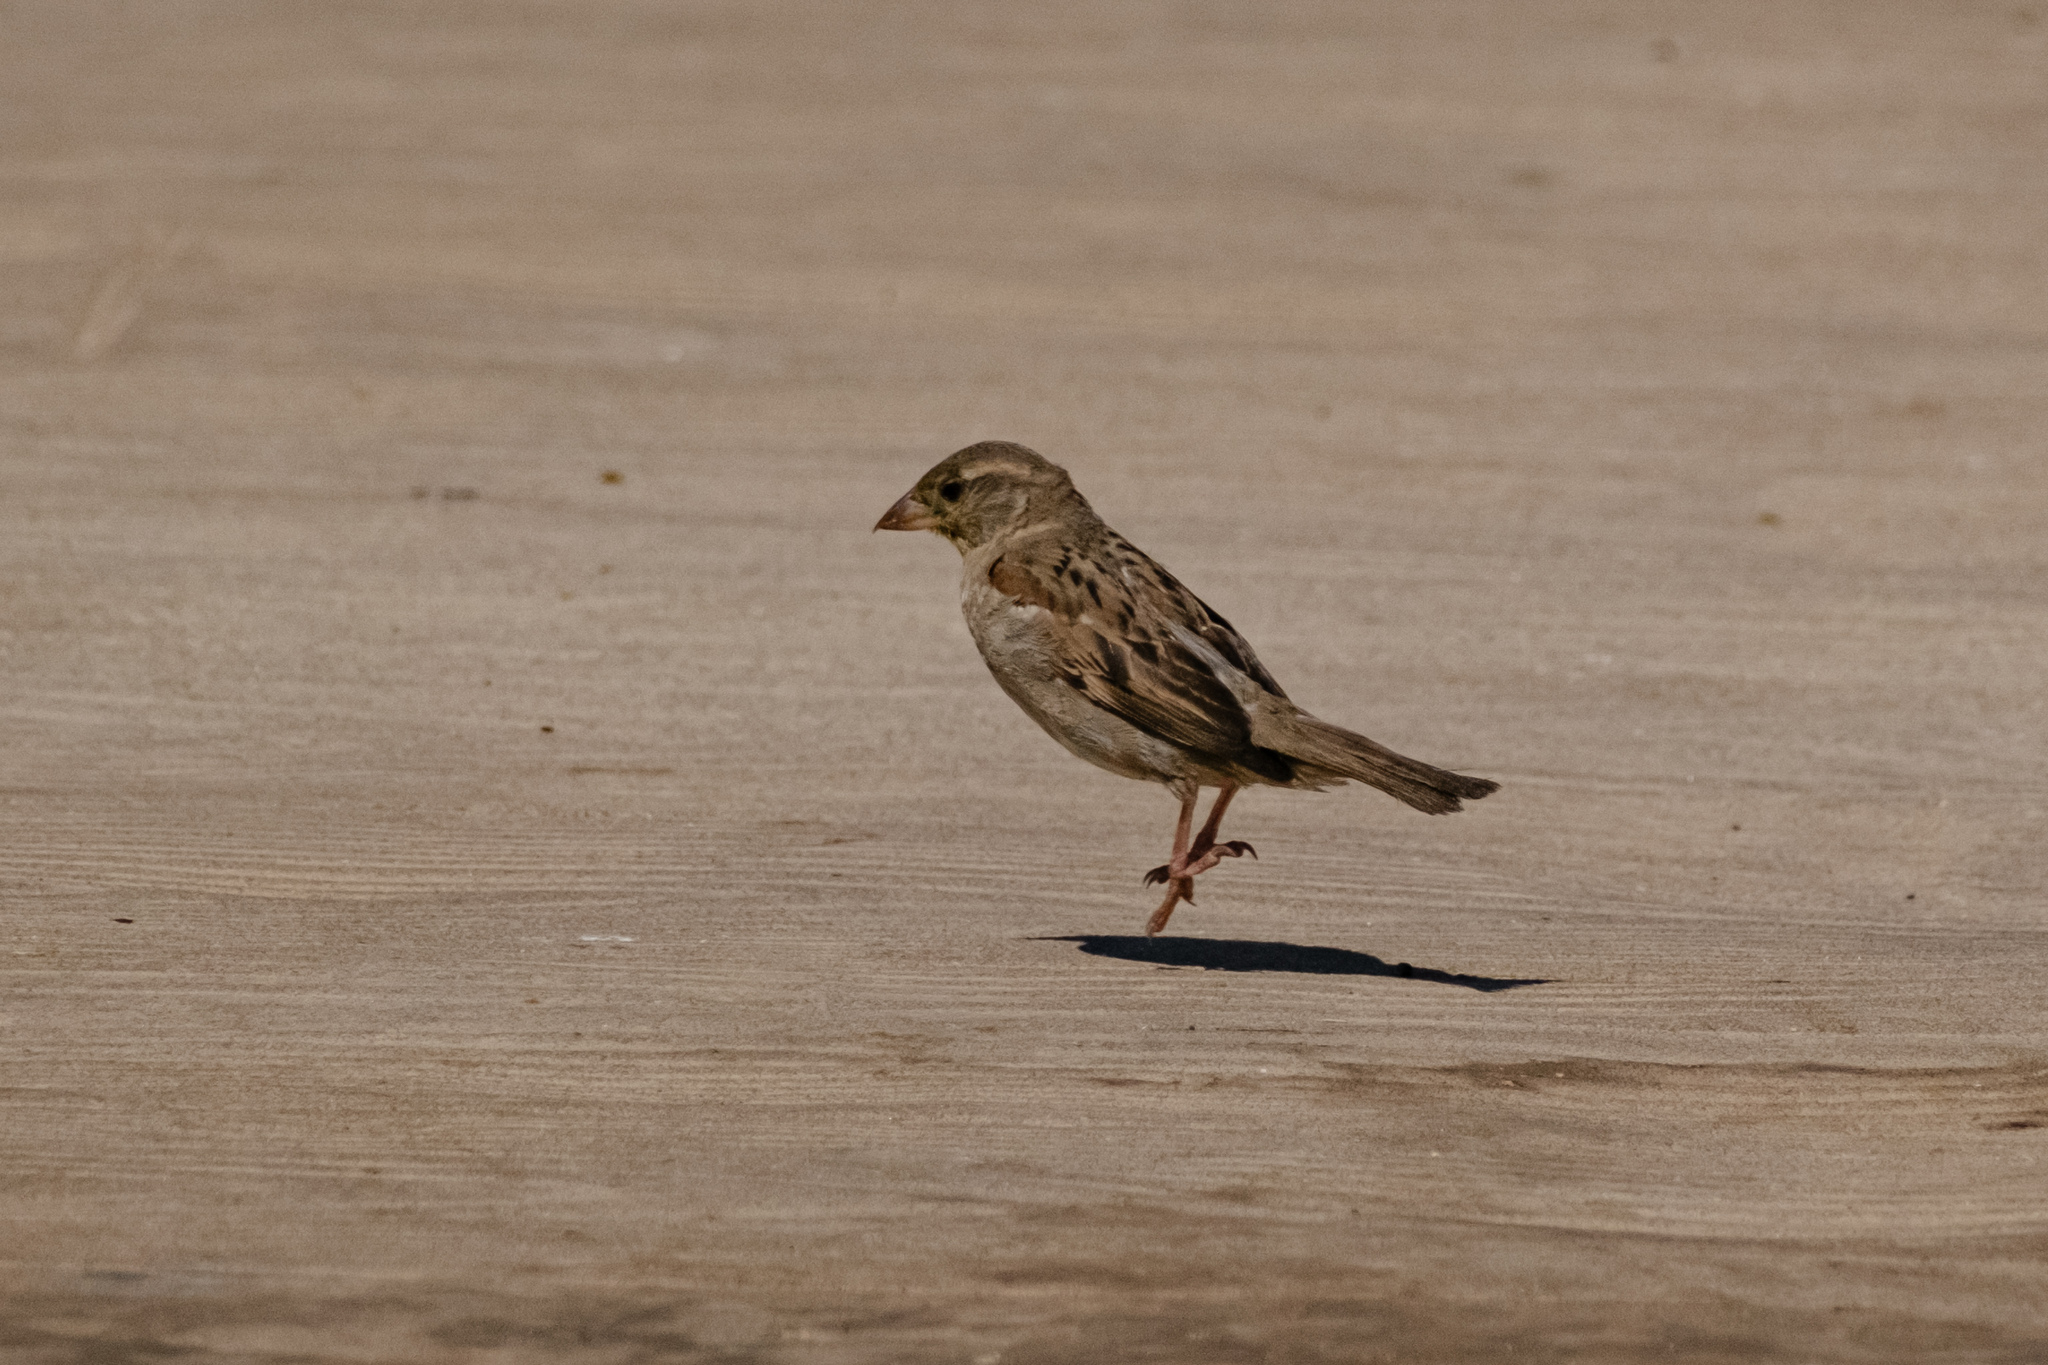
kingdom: Animalia
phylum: Chordata
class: Aves
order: Passeriformes
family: Passeridae
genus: Passer
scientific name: Passer domesticus
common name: House sparrow
